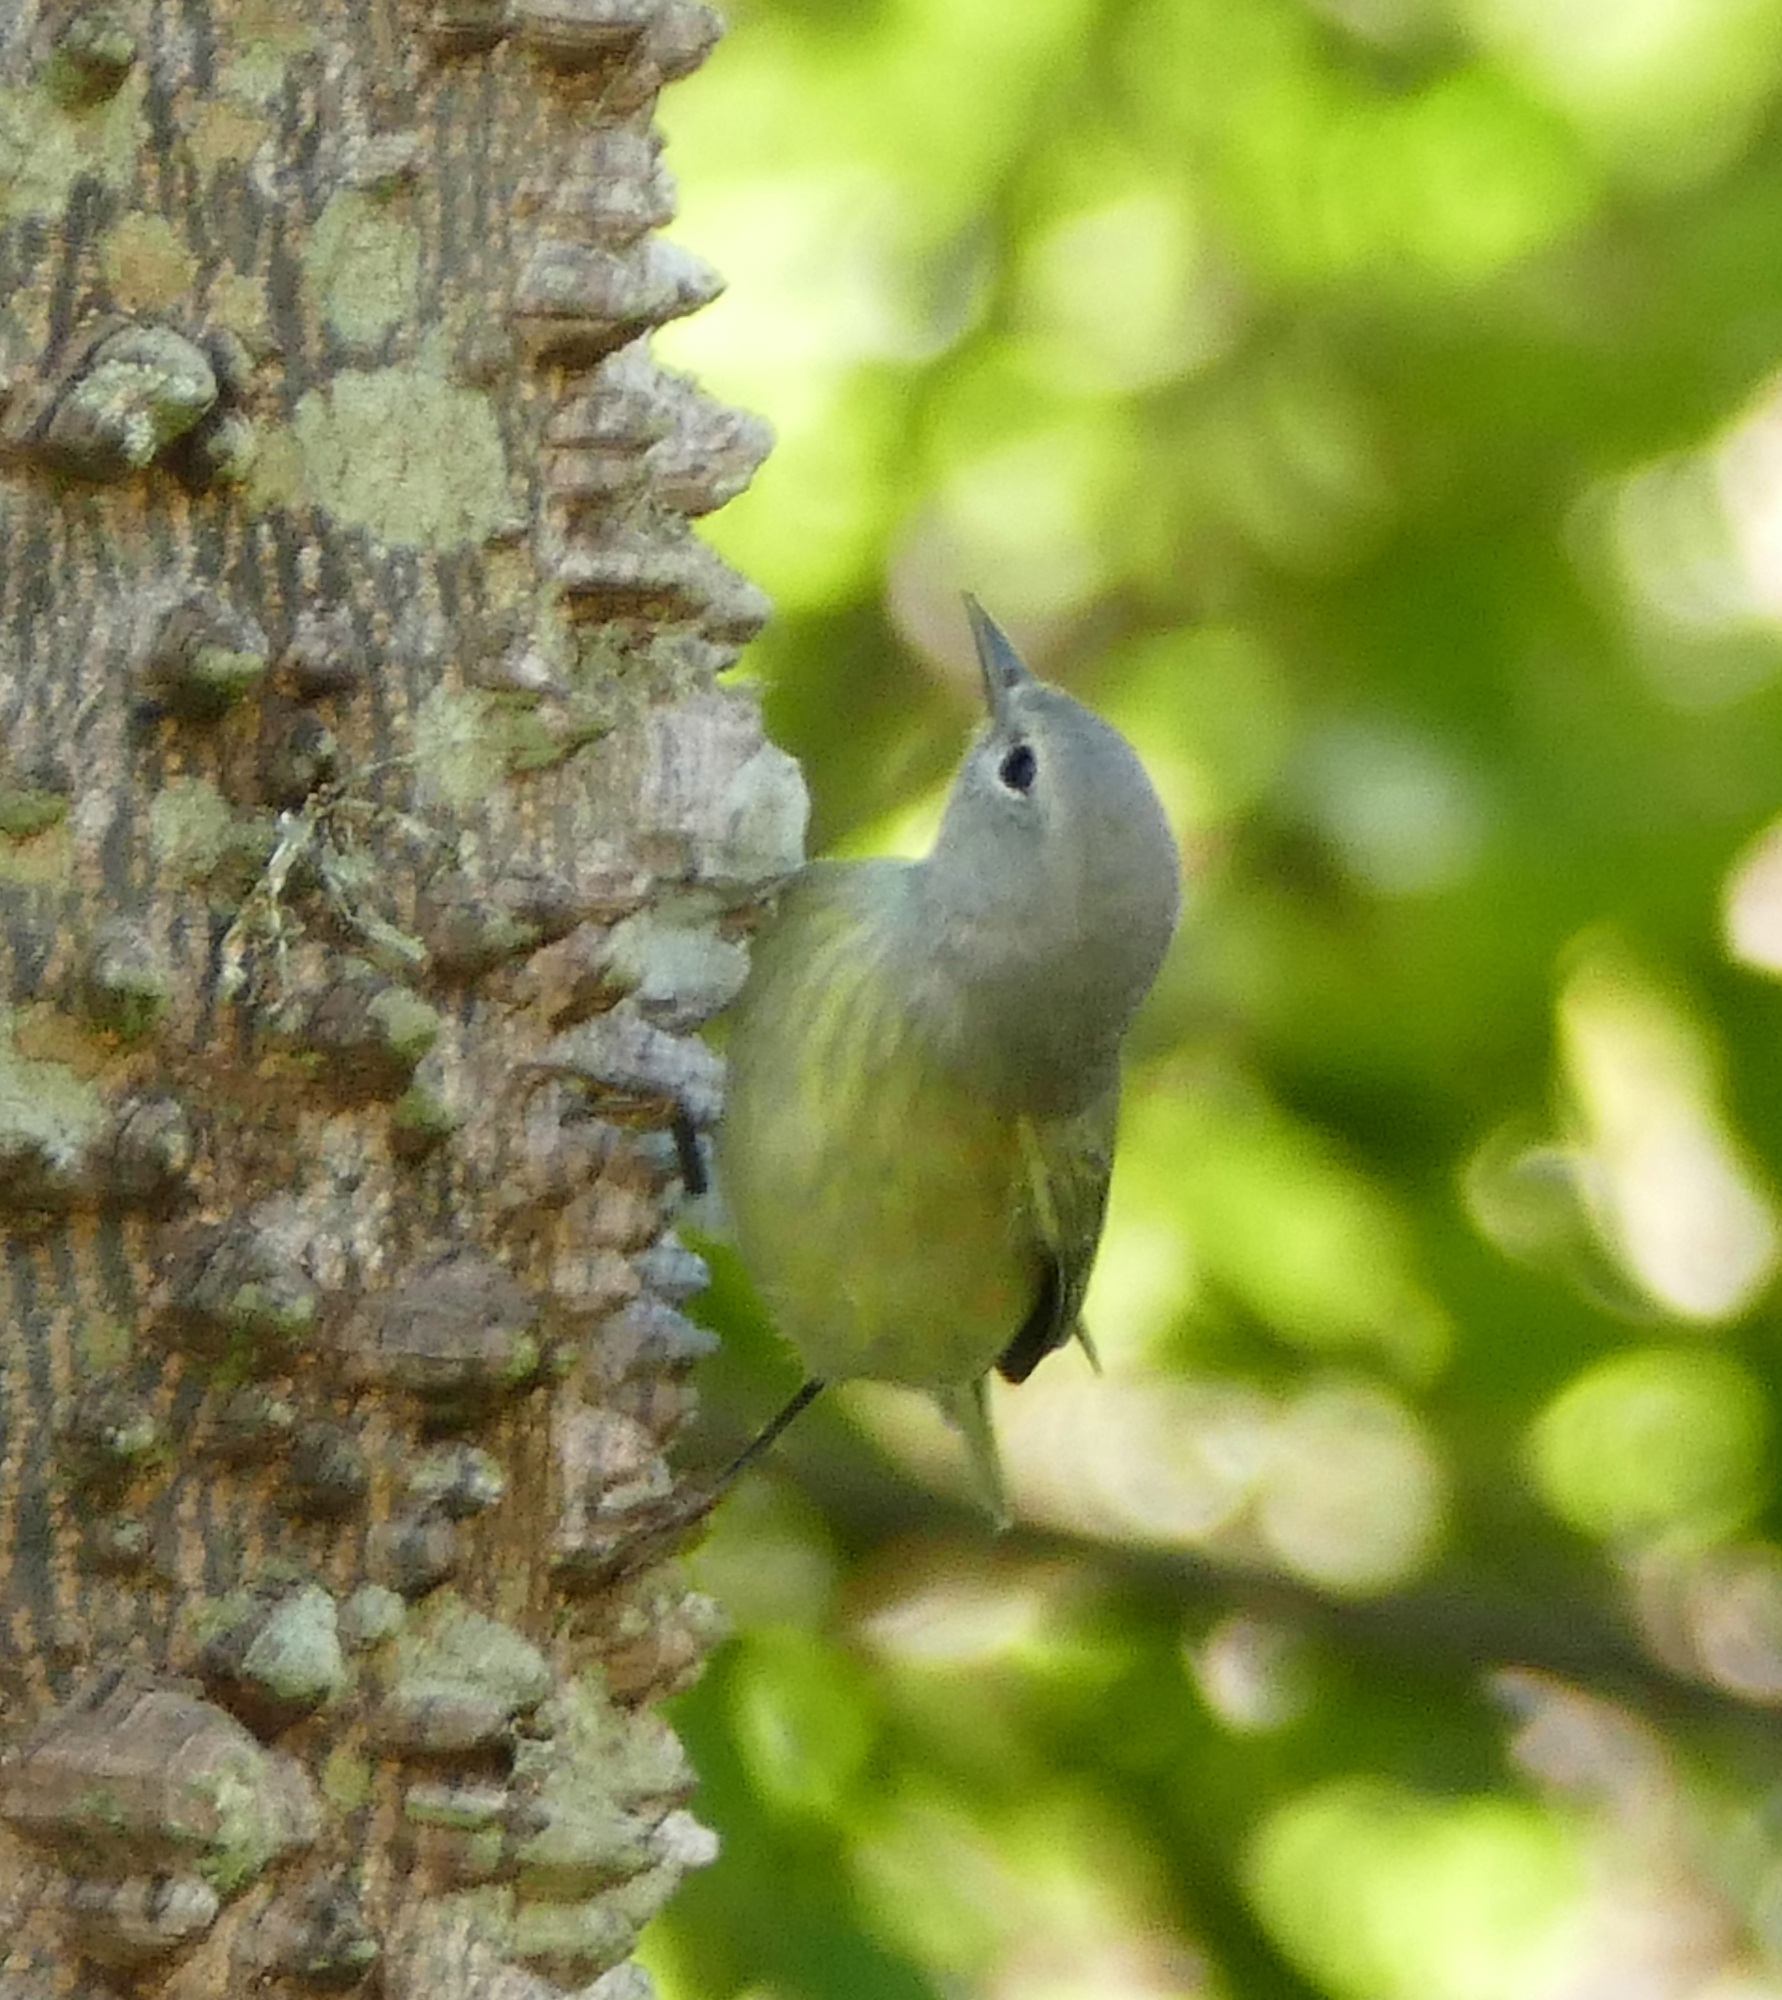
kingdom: Animalia
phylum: Chordata
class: Aves
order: Passeriformes
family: Parulidae
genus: Leiothlypis
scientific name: Leiothlypis celata
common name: Orange-crowned warbler
